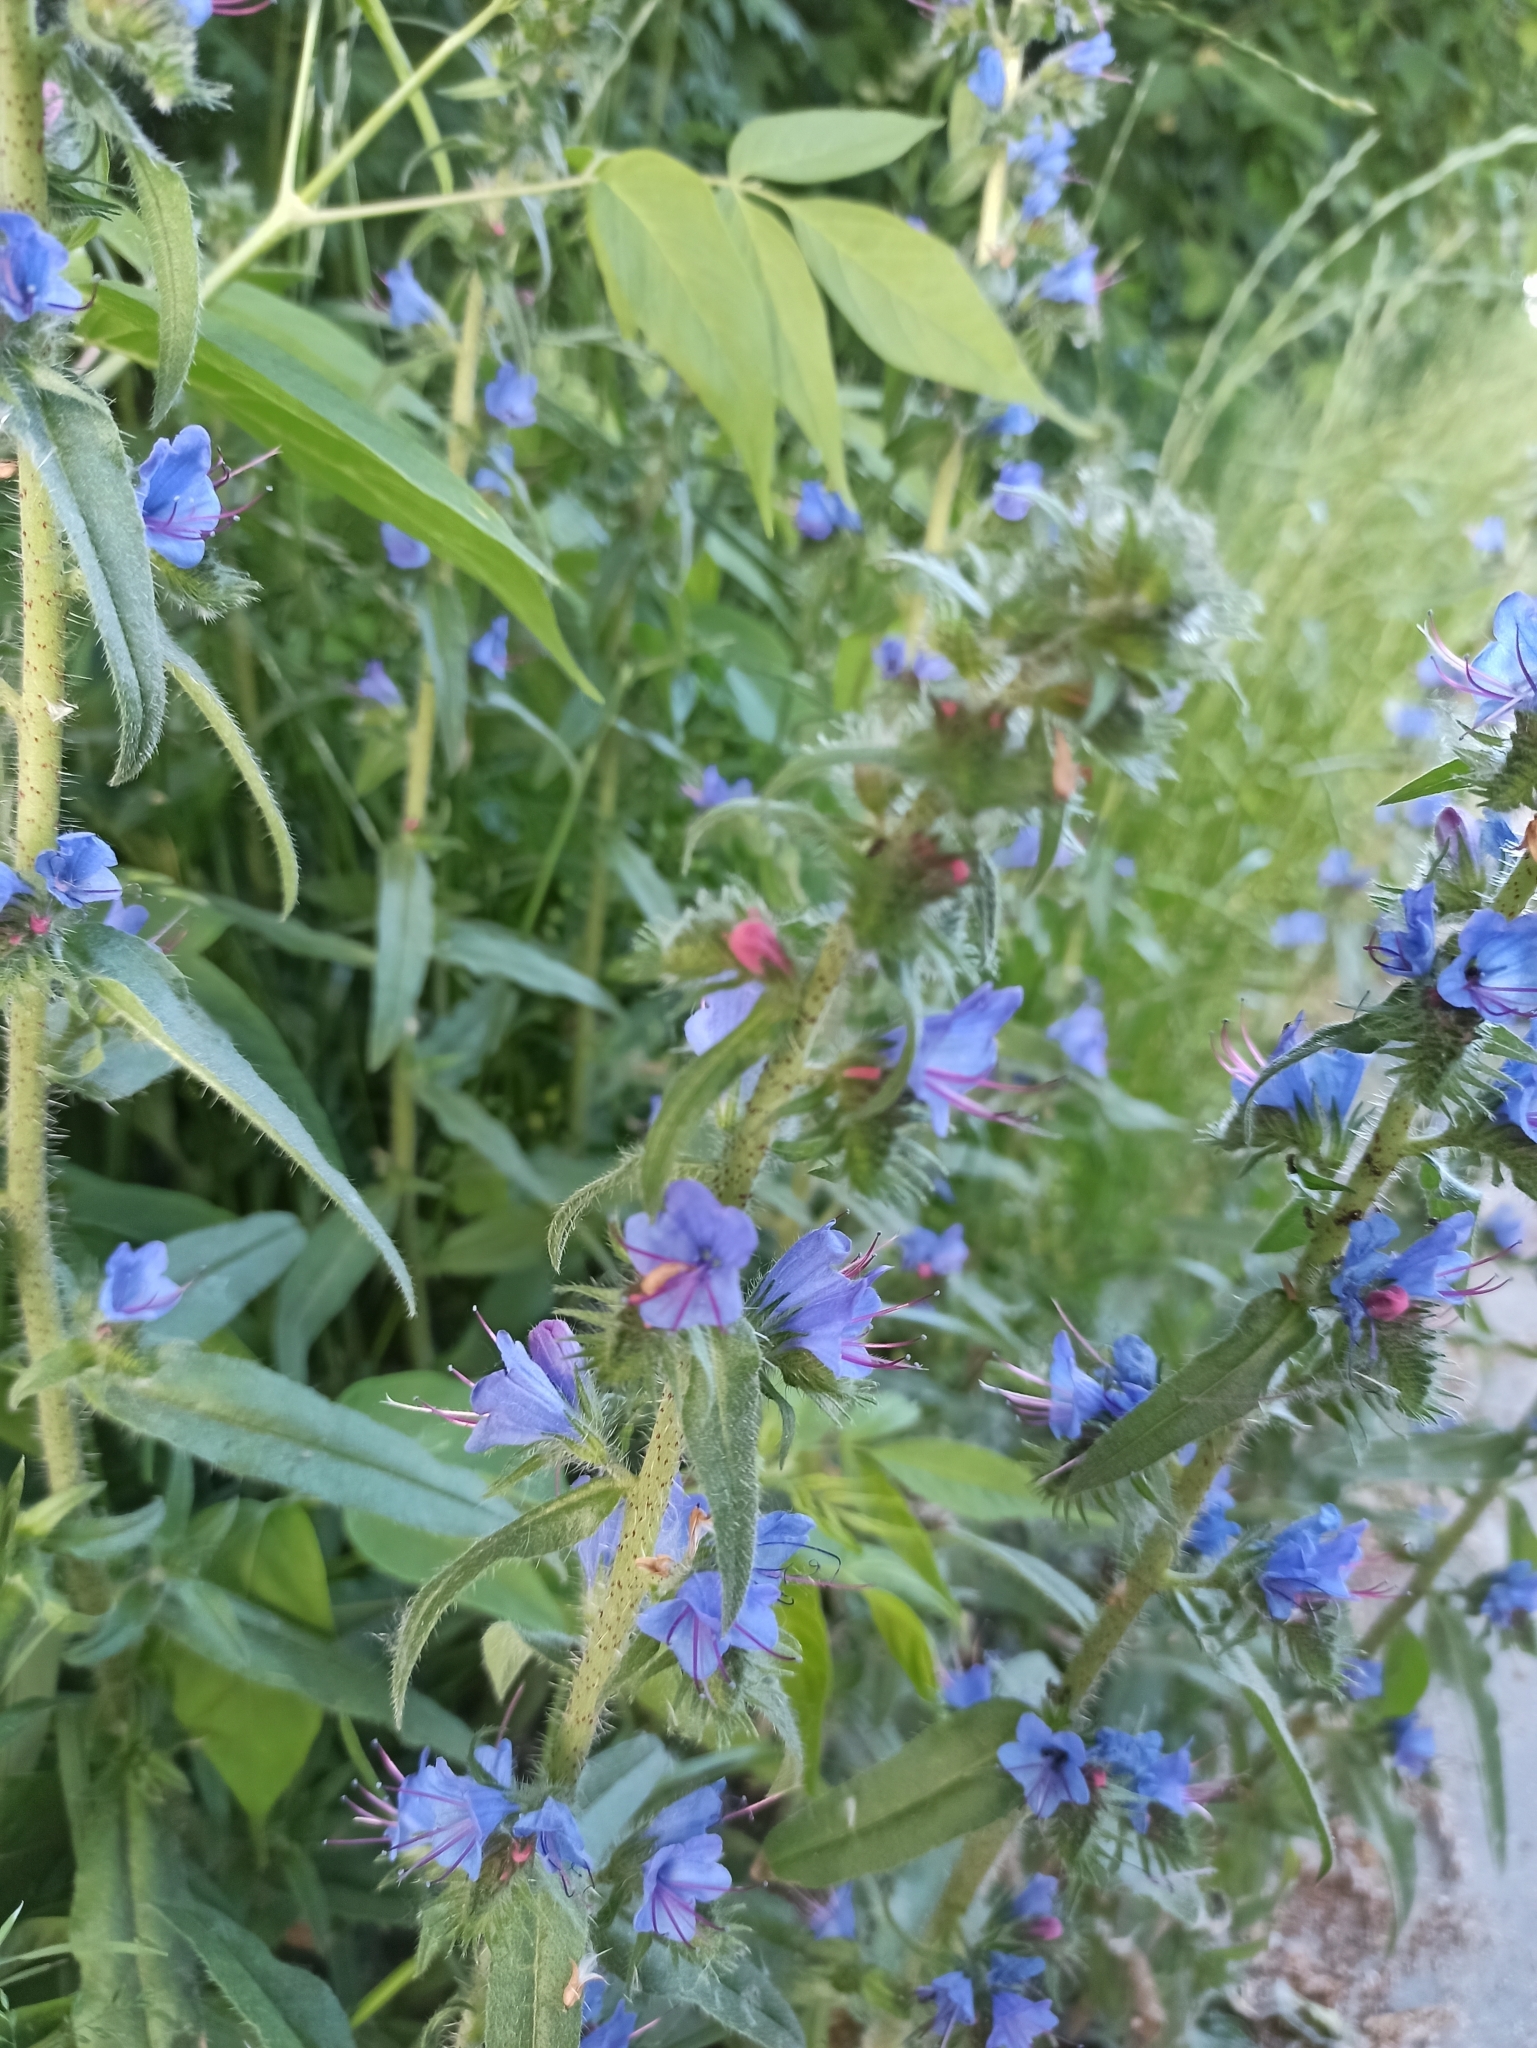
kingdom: Plantae
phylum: Tracheophyta
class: Magnoliopsida
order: Boraginales
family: Boraginaceae
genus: Echium
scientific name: Echium vulgare
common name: Common viper's bugloss
